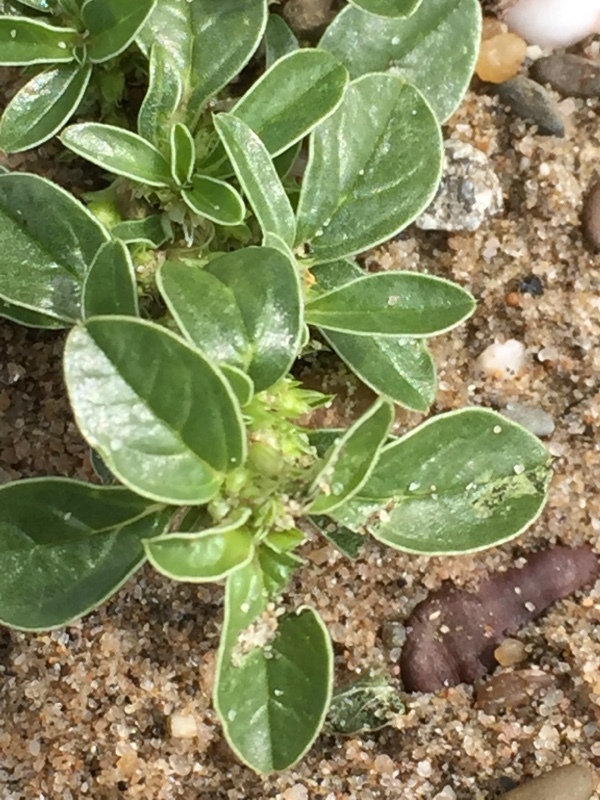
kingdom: Plantae
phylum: Tracheophyta
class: Magnoliopsida
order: Caryophyllales
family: Amaranthaceae
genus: Amaranthus
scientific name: Amaranthus blitoides
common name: Prostrate pigweed
